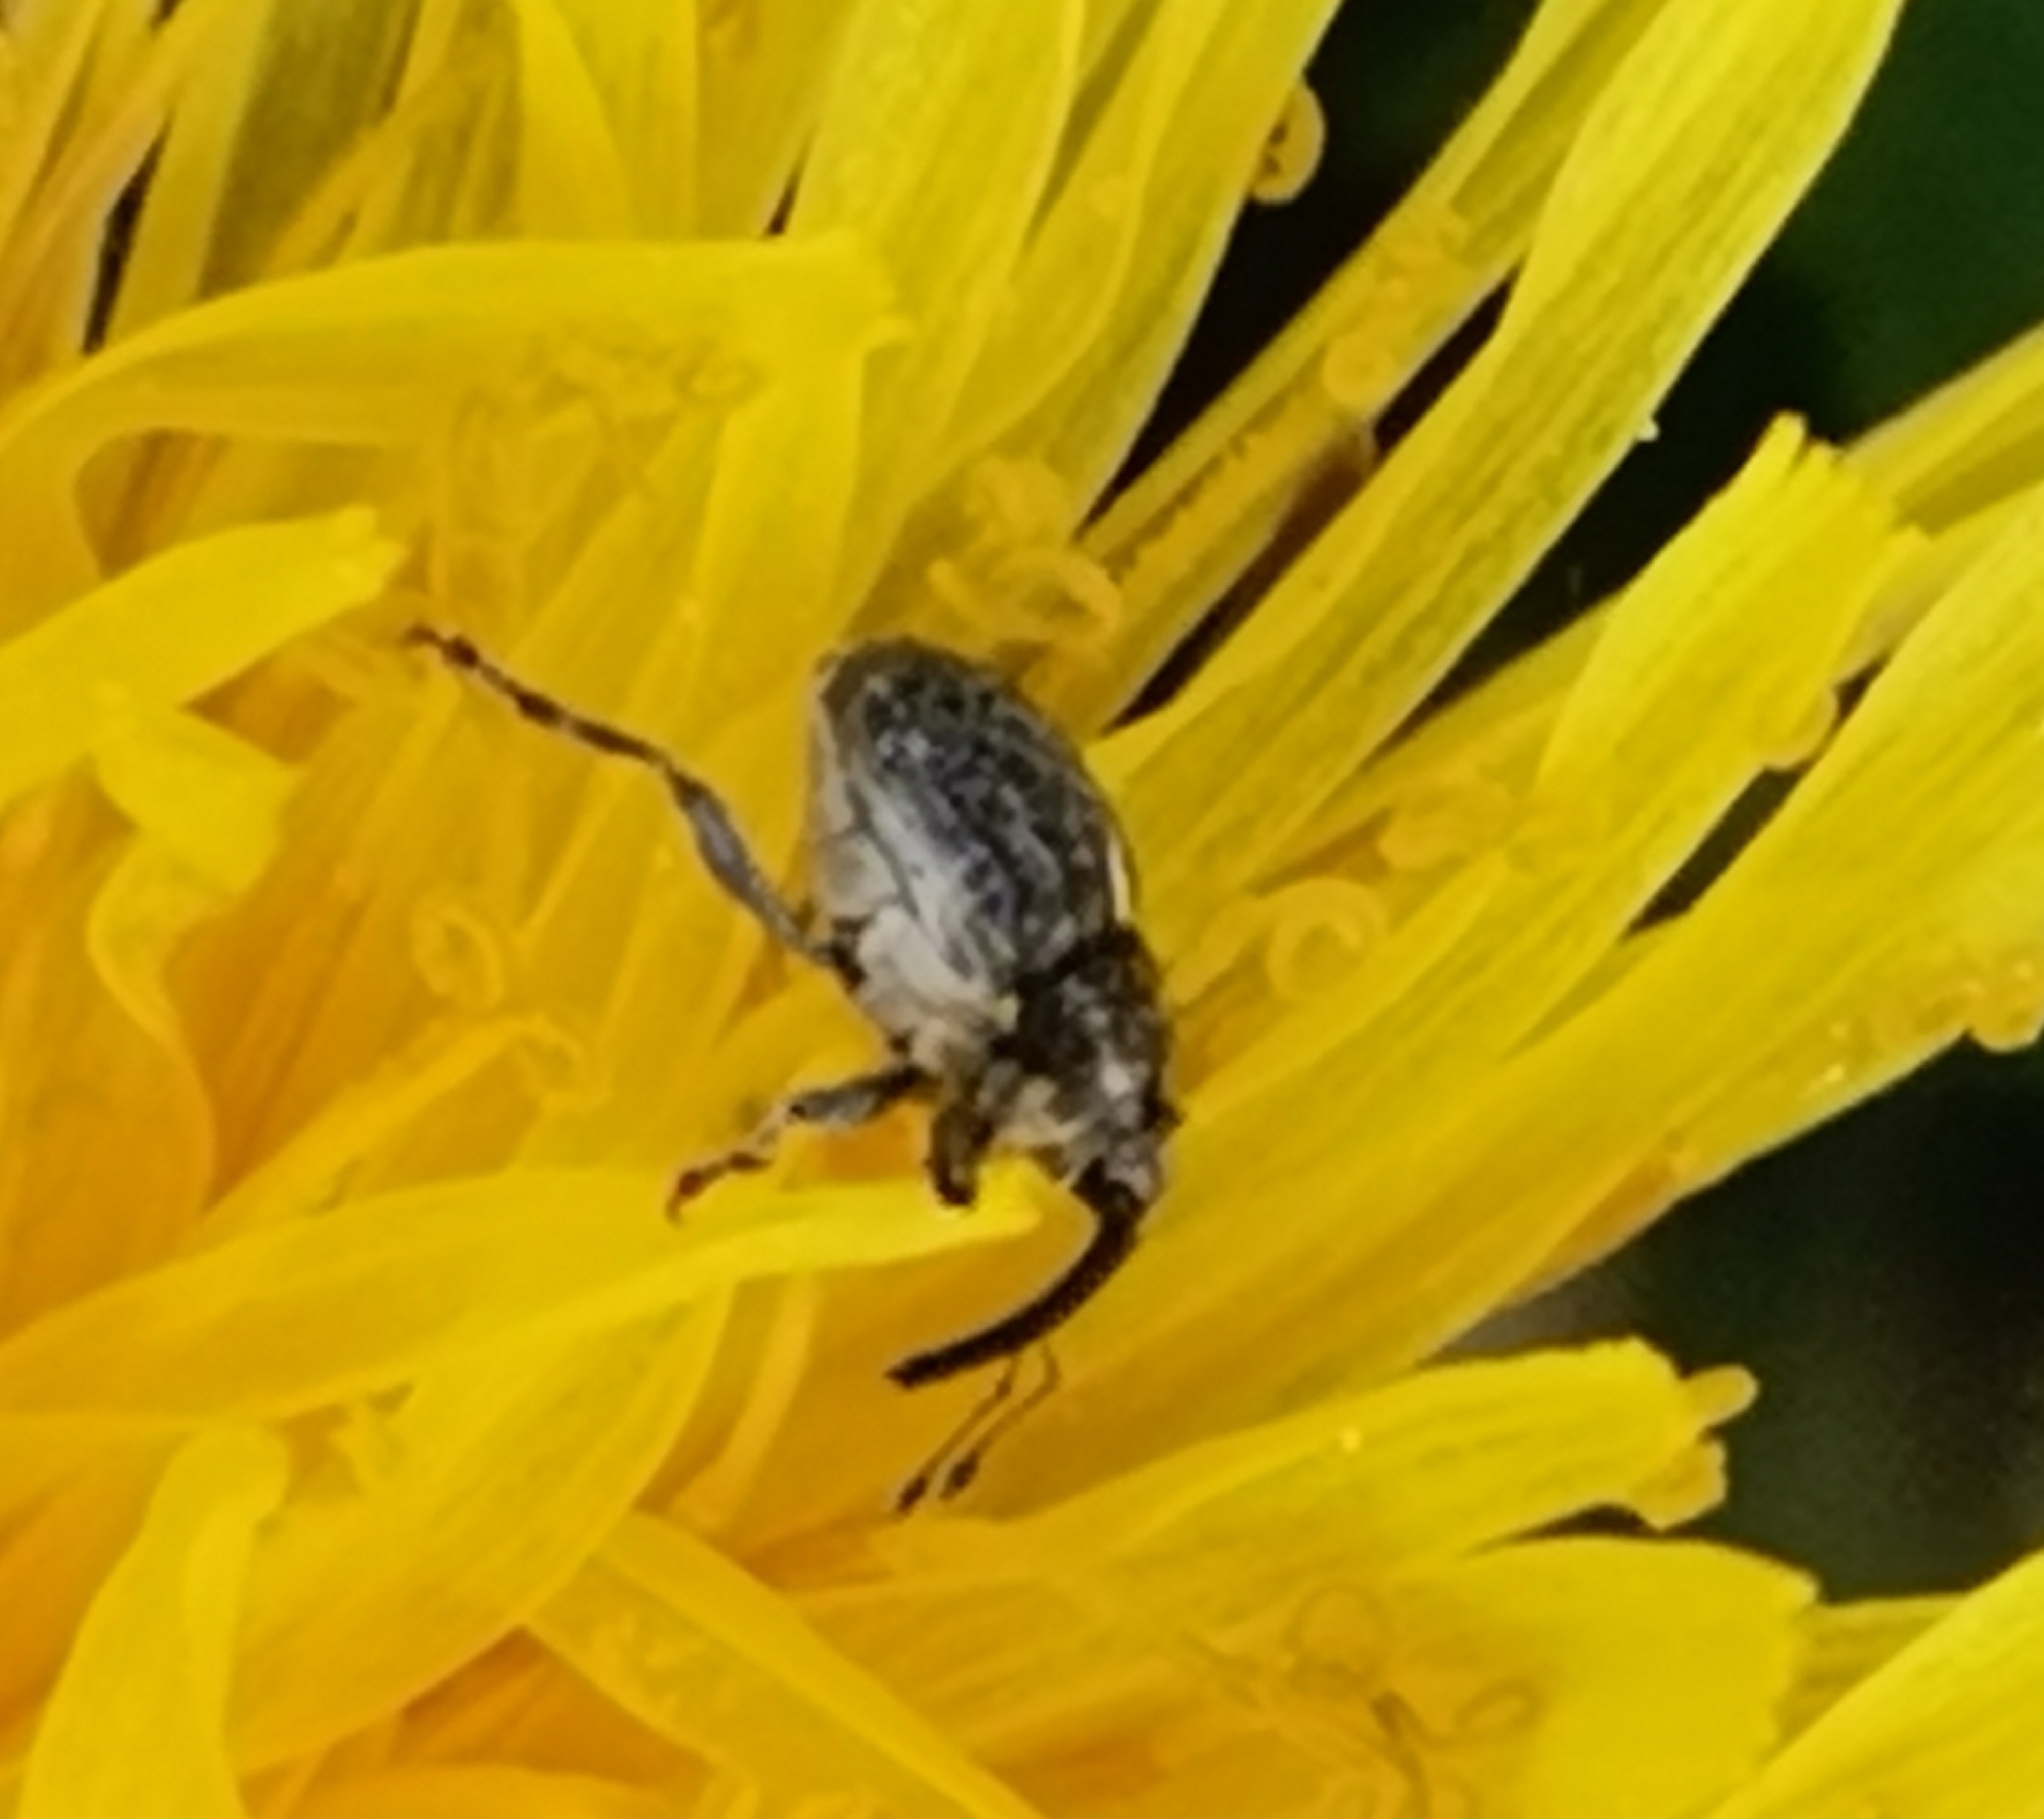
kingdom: Animalia
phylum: Arthropoda
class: Insecta
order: Coleoptera
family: Curculionidae
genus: Ceutorhynchus
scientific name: Ceutorhynchus pallidactylus
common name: Cabbage stem weavil
